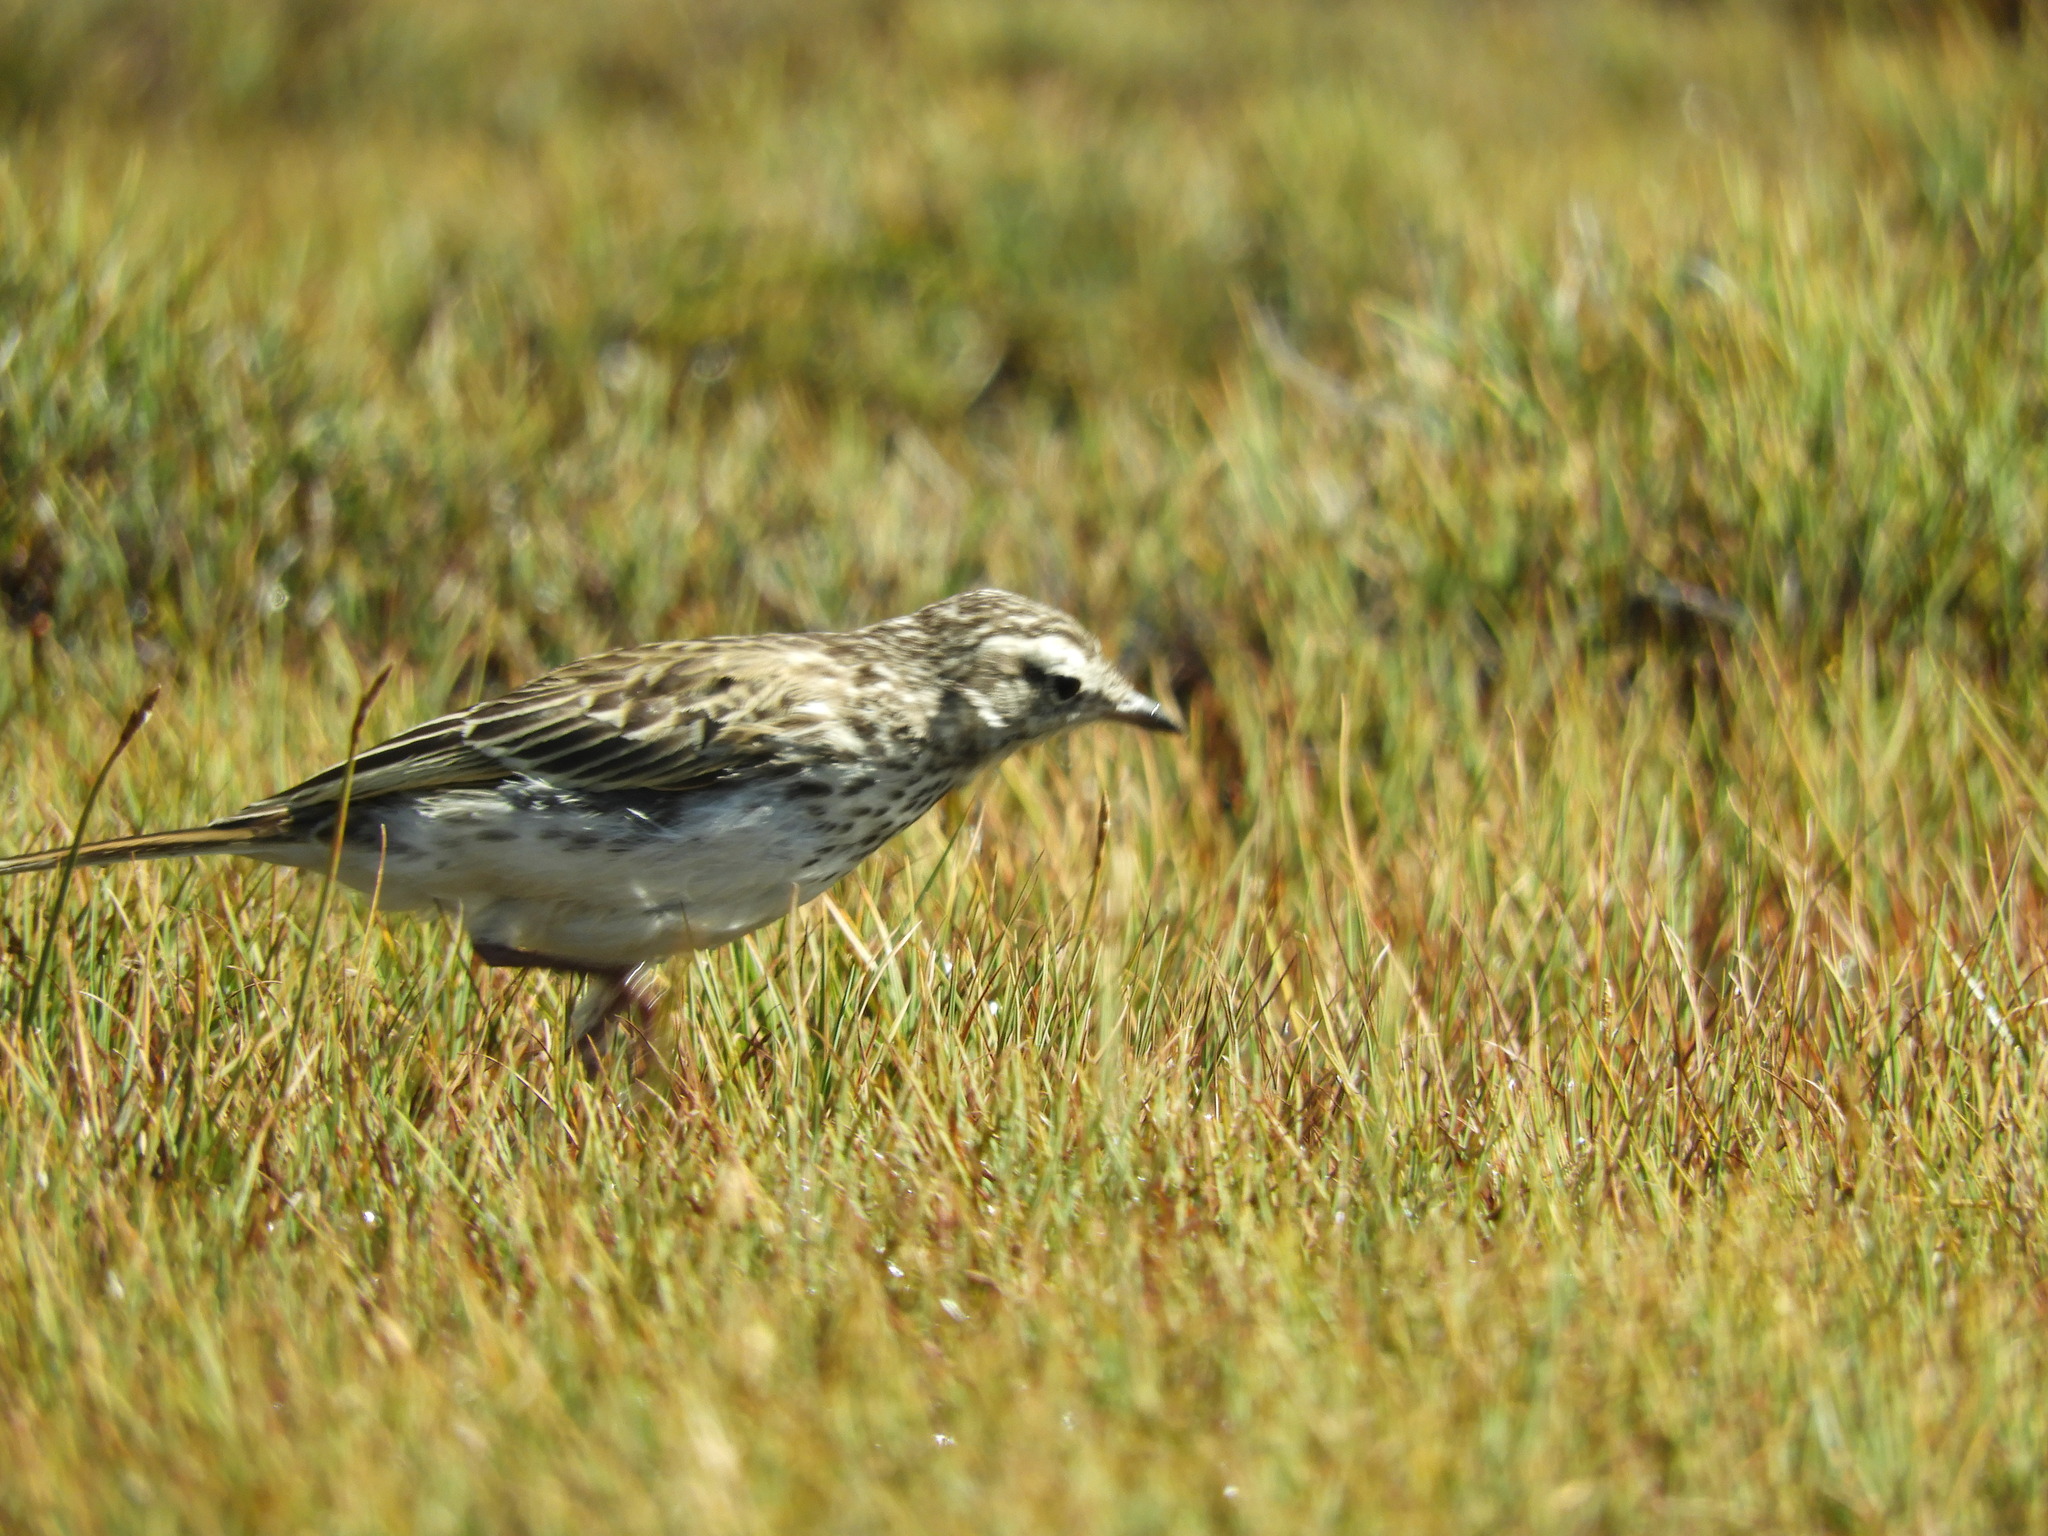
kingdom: Animalia
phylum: Chordata
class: Aves
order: Passeriformes
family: Motacillidae
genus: Anthus
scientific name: Anthus novaeseelandiae
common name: New zealand pipit
